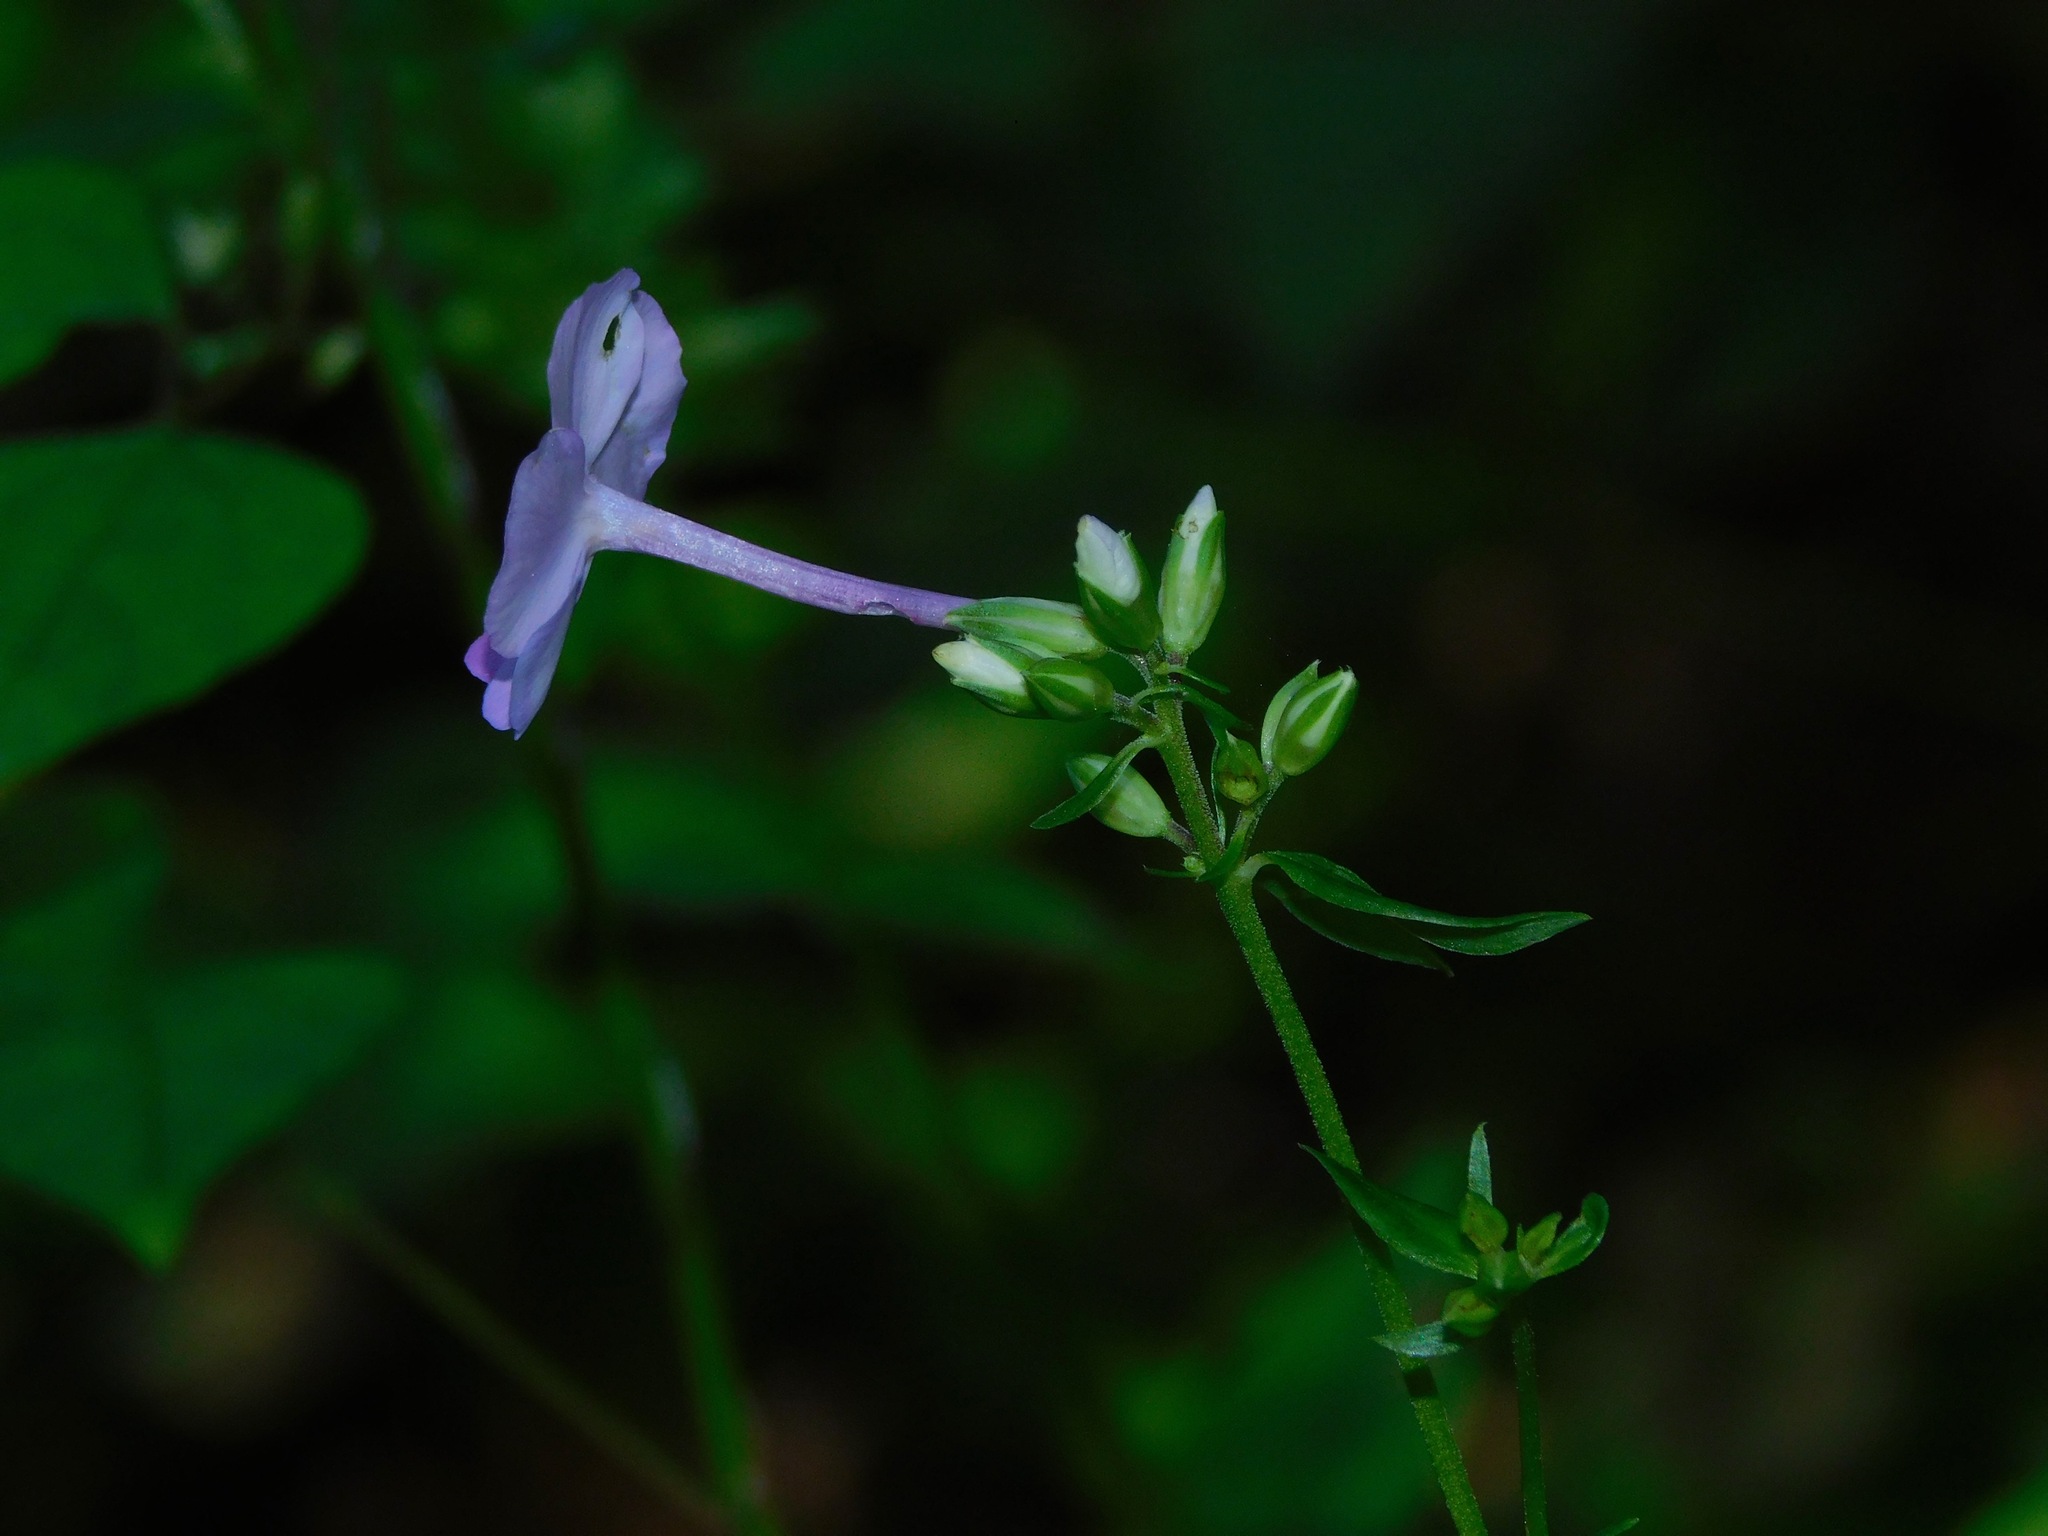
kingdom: Plantae
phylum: Tracheophyta
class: Magnoliopsida
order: Ericales
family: Polemoniaceae
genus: Phlox
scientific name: Phlox carolina
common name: Thick-leaf phlox
